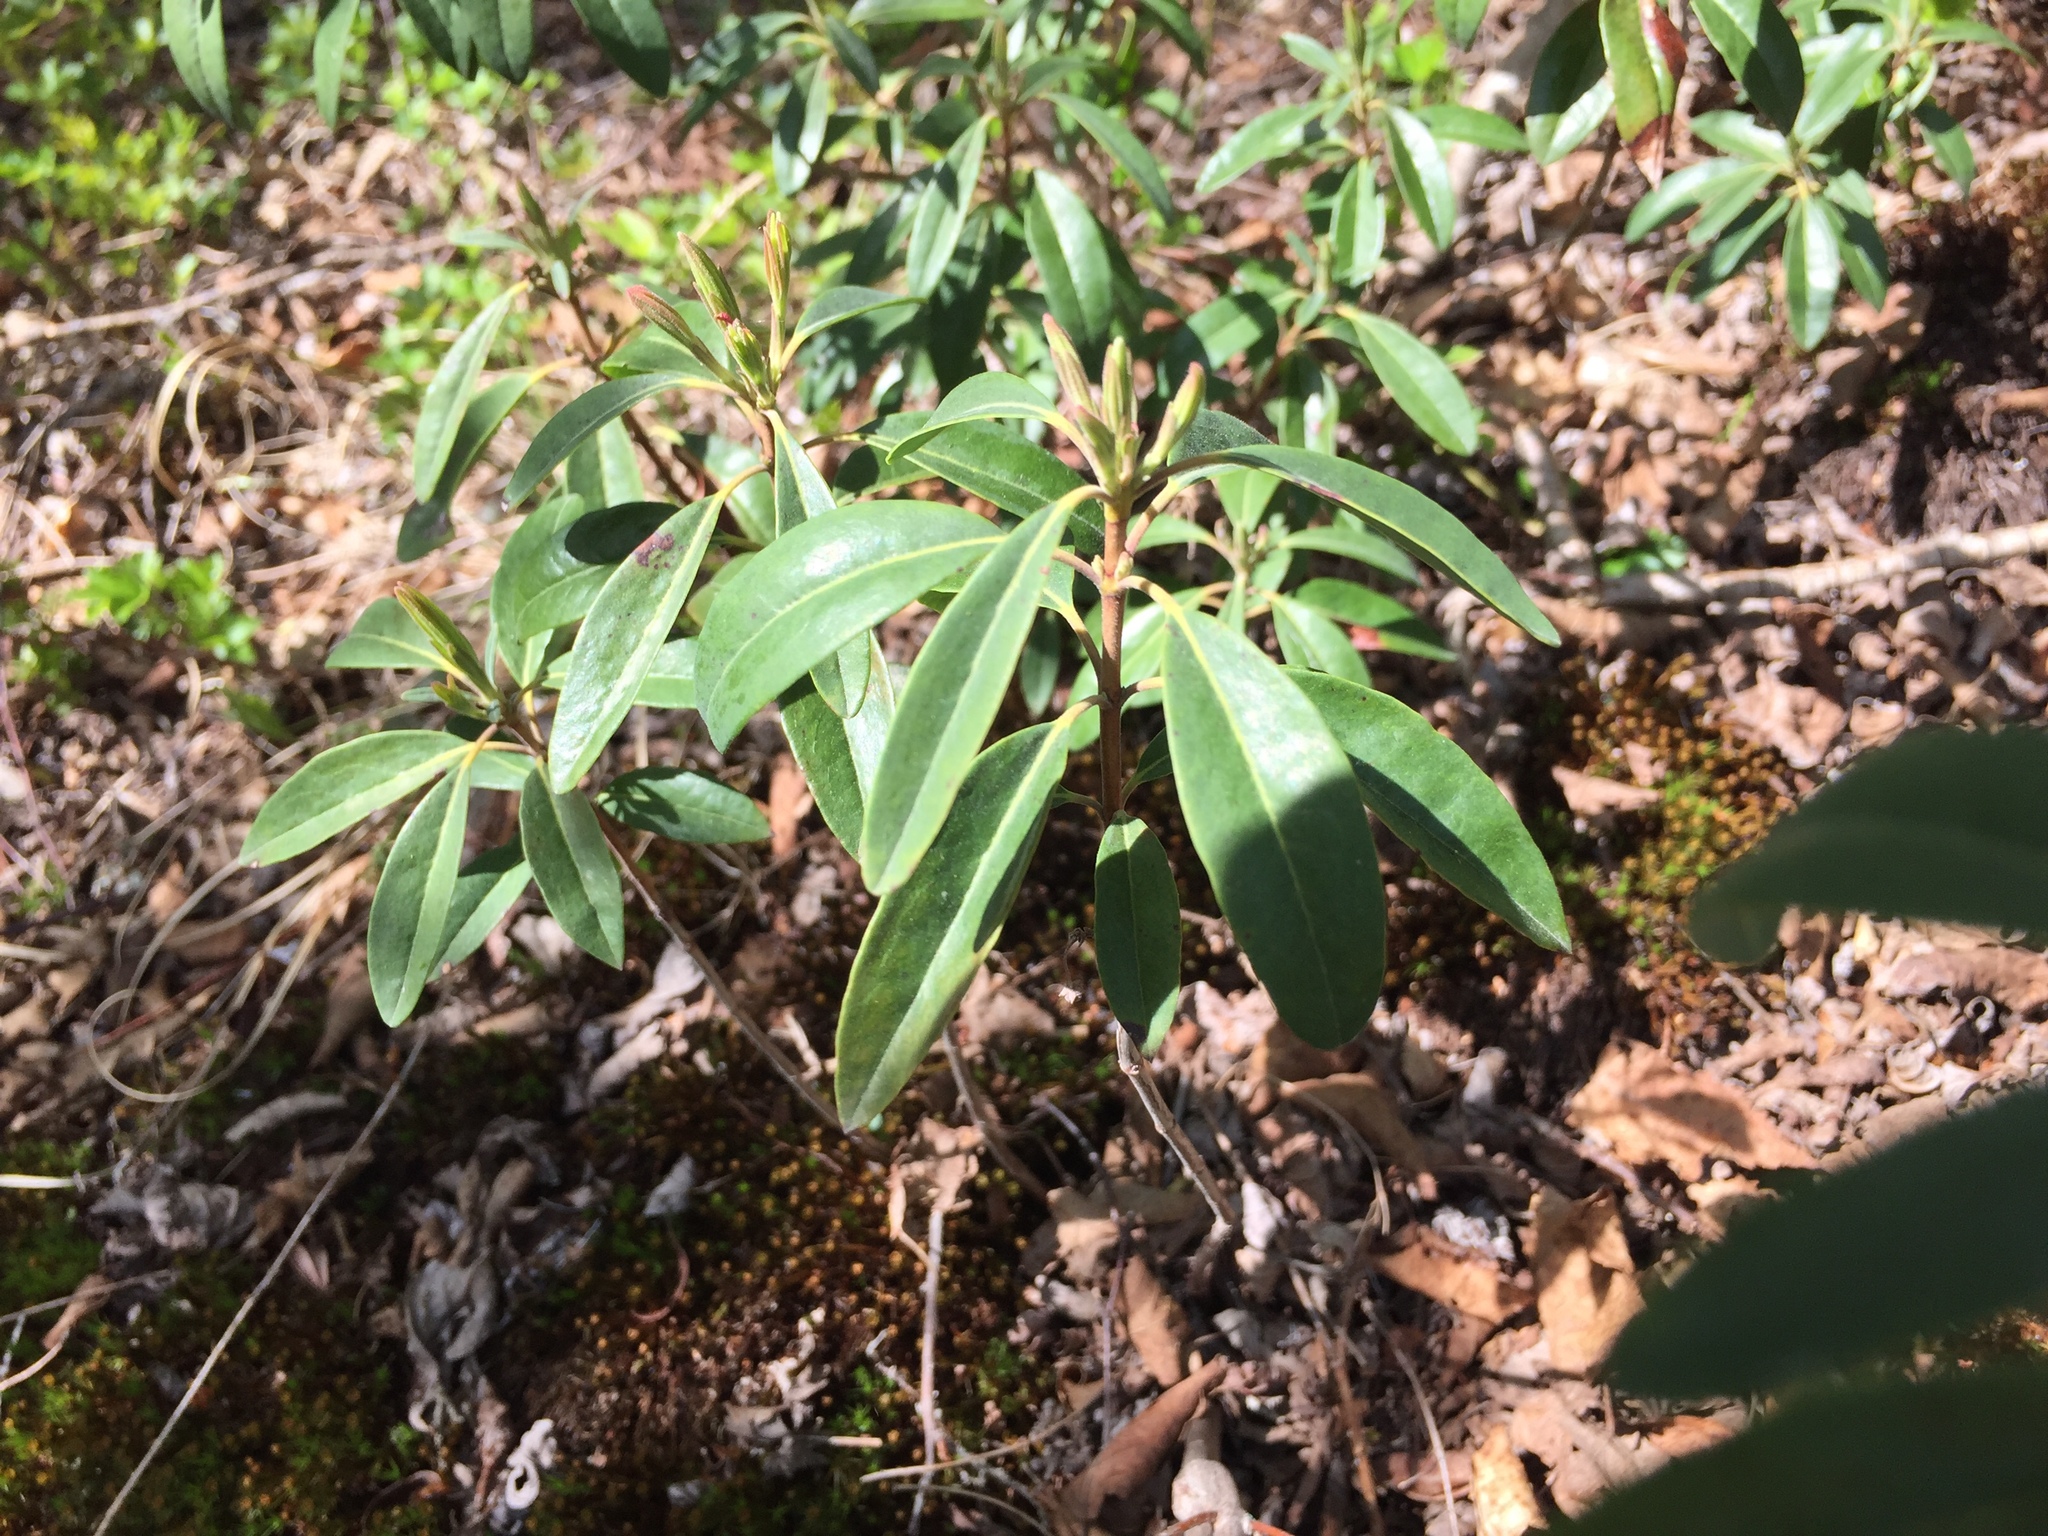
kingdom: Plantae
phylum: Tracheophyta
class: Magnoliopsida
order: Ericales
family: Ericaceae
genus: Kalmia
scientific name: Kalmia angustifolia
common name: Sheep-laurel
